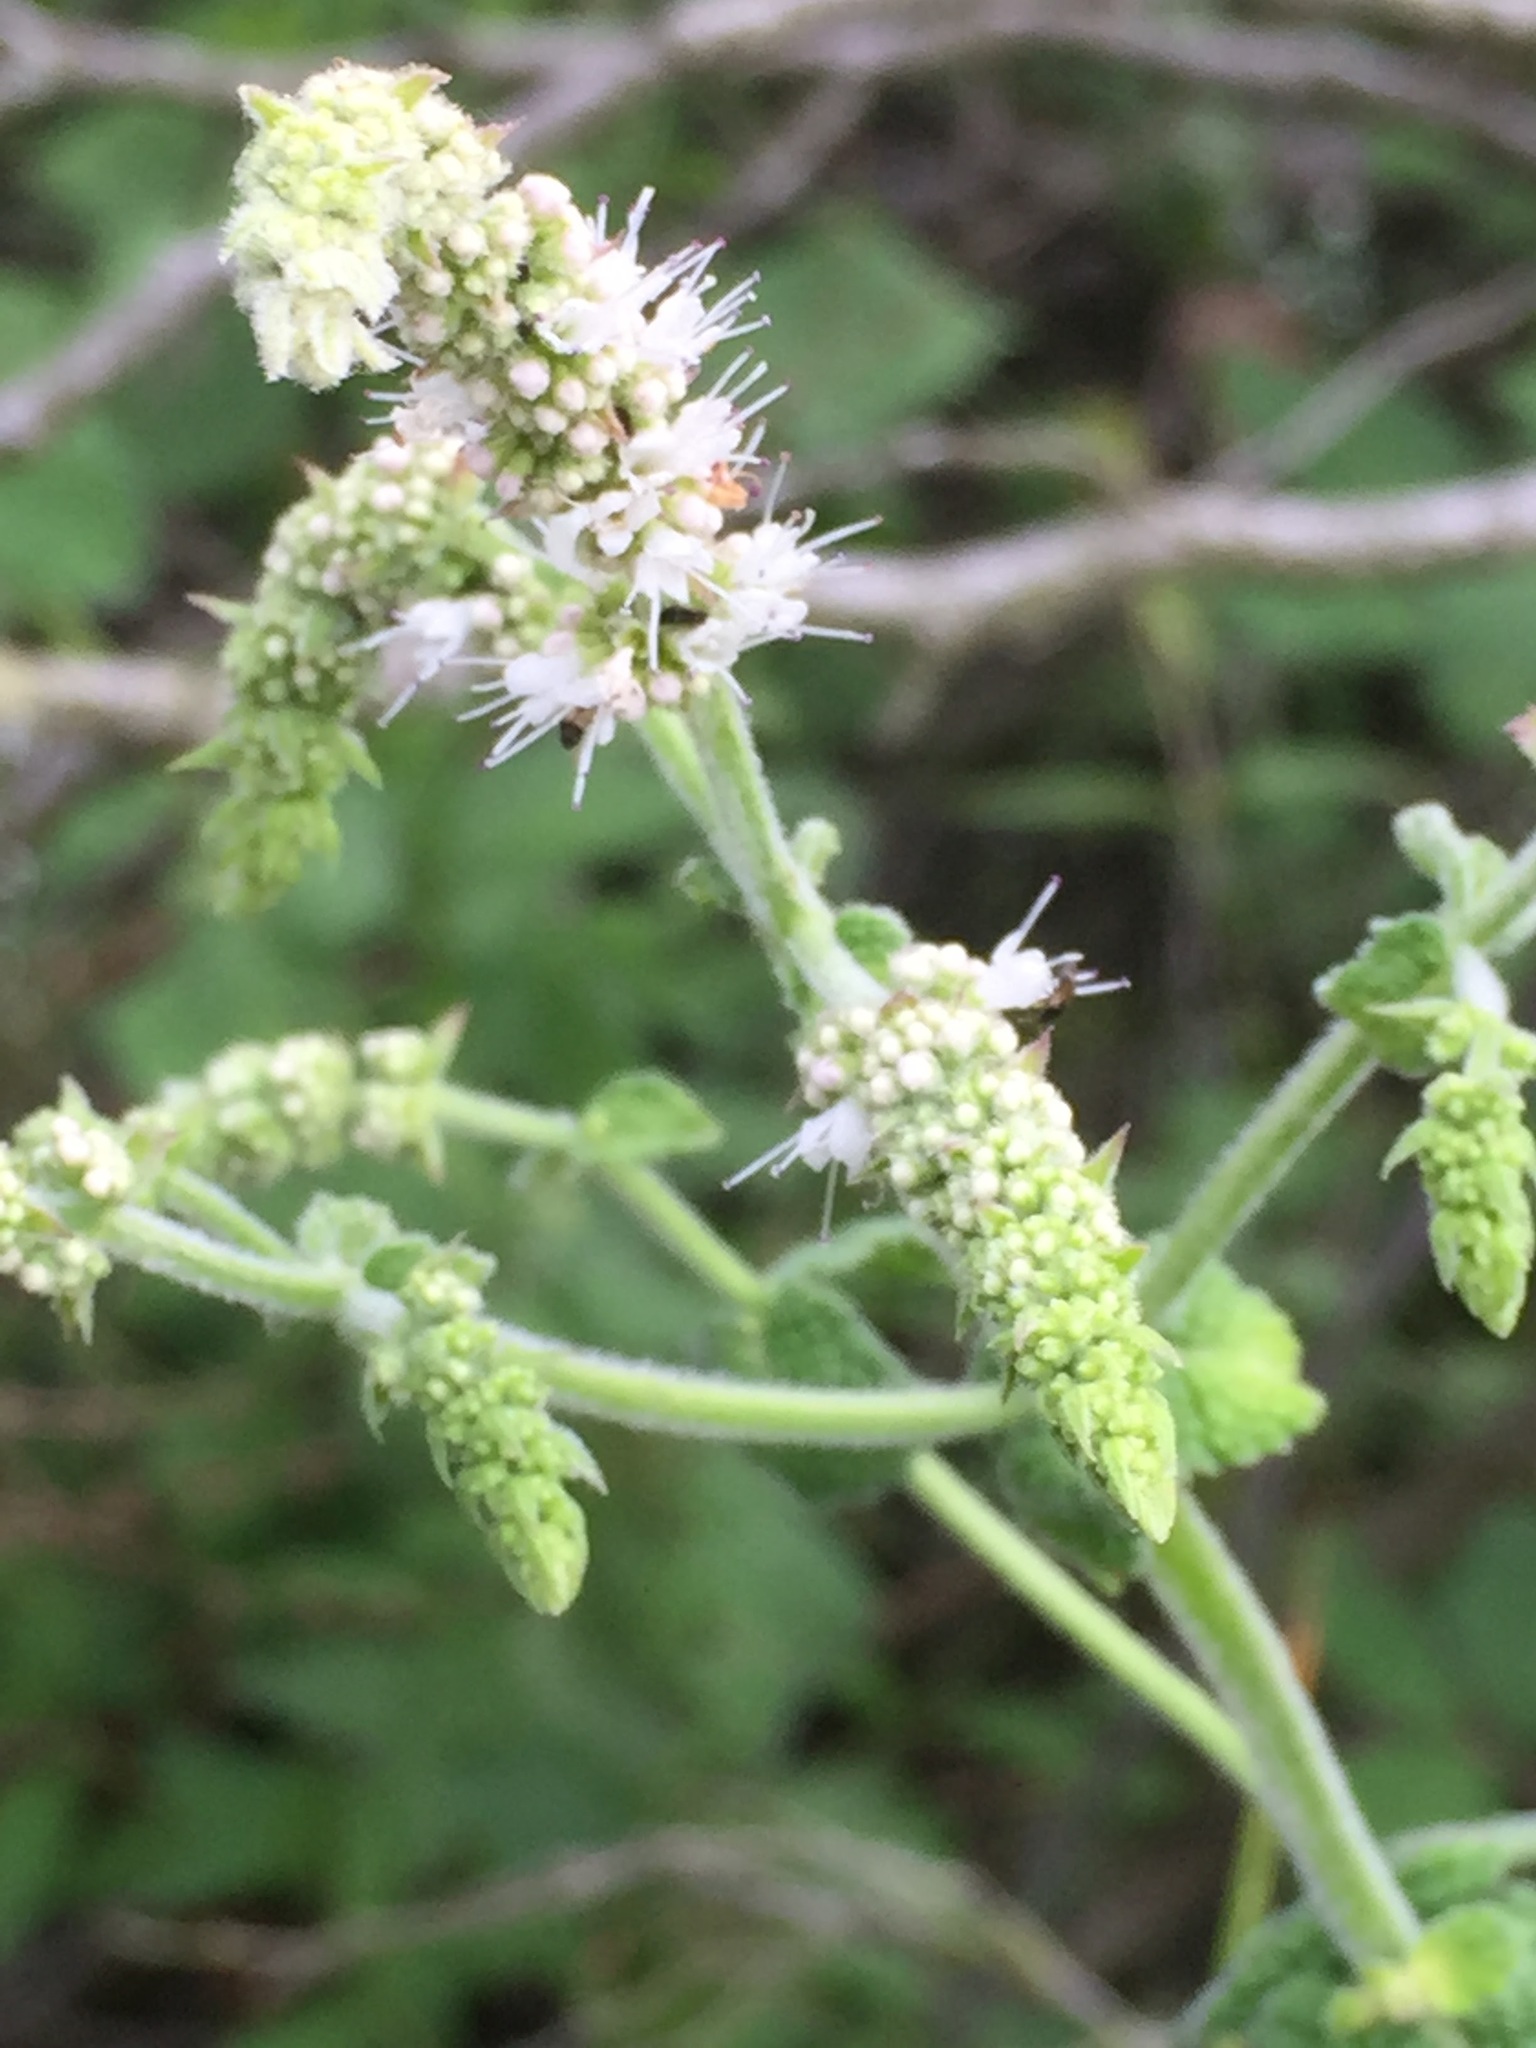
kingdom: Plantae
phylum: Tracheophyta
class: Magnoliopsida
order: Lamiales
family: Lamiaceae
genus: Mentha
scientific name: Mentha suaveolens
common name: Apple mint
